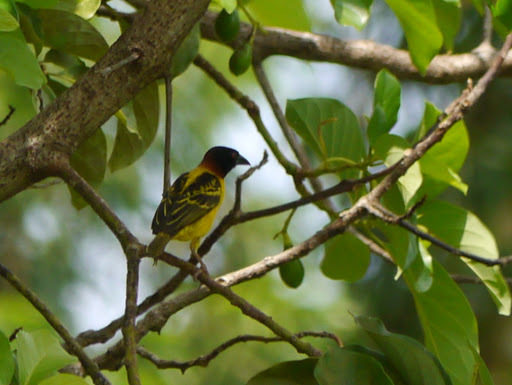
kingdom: Animalia
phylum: Chordata
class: Aves
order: Passeriformes
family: Ploceidae
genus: Ploceus
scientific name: Ploceus cucullatus
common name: Village weaver
